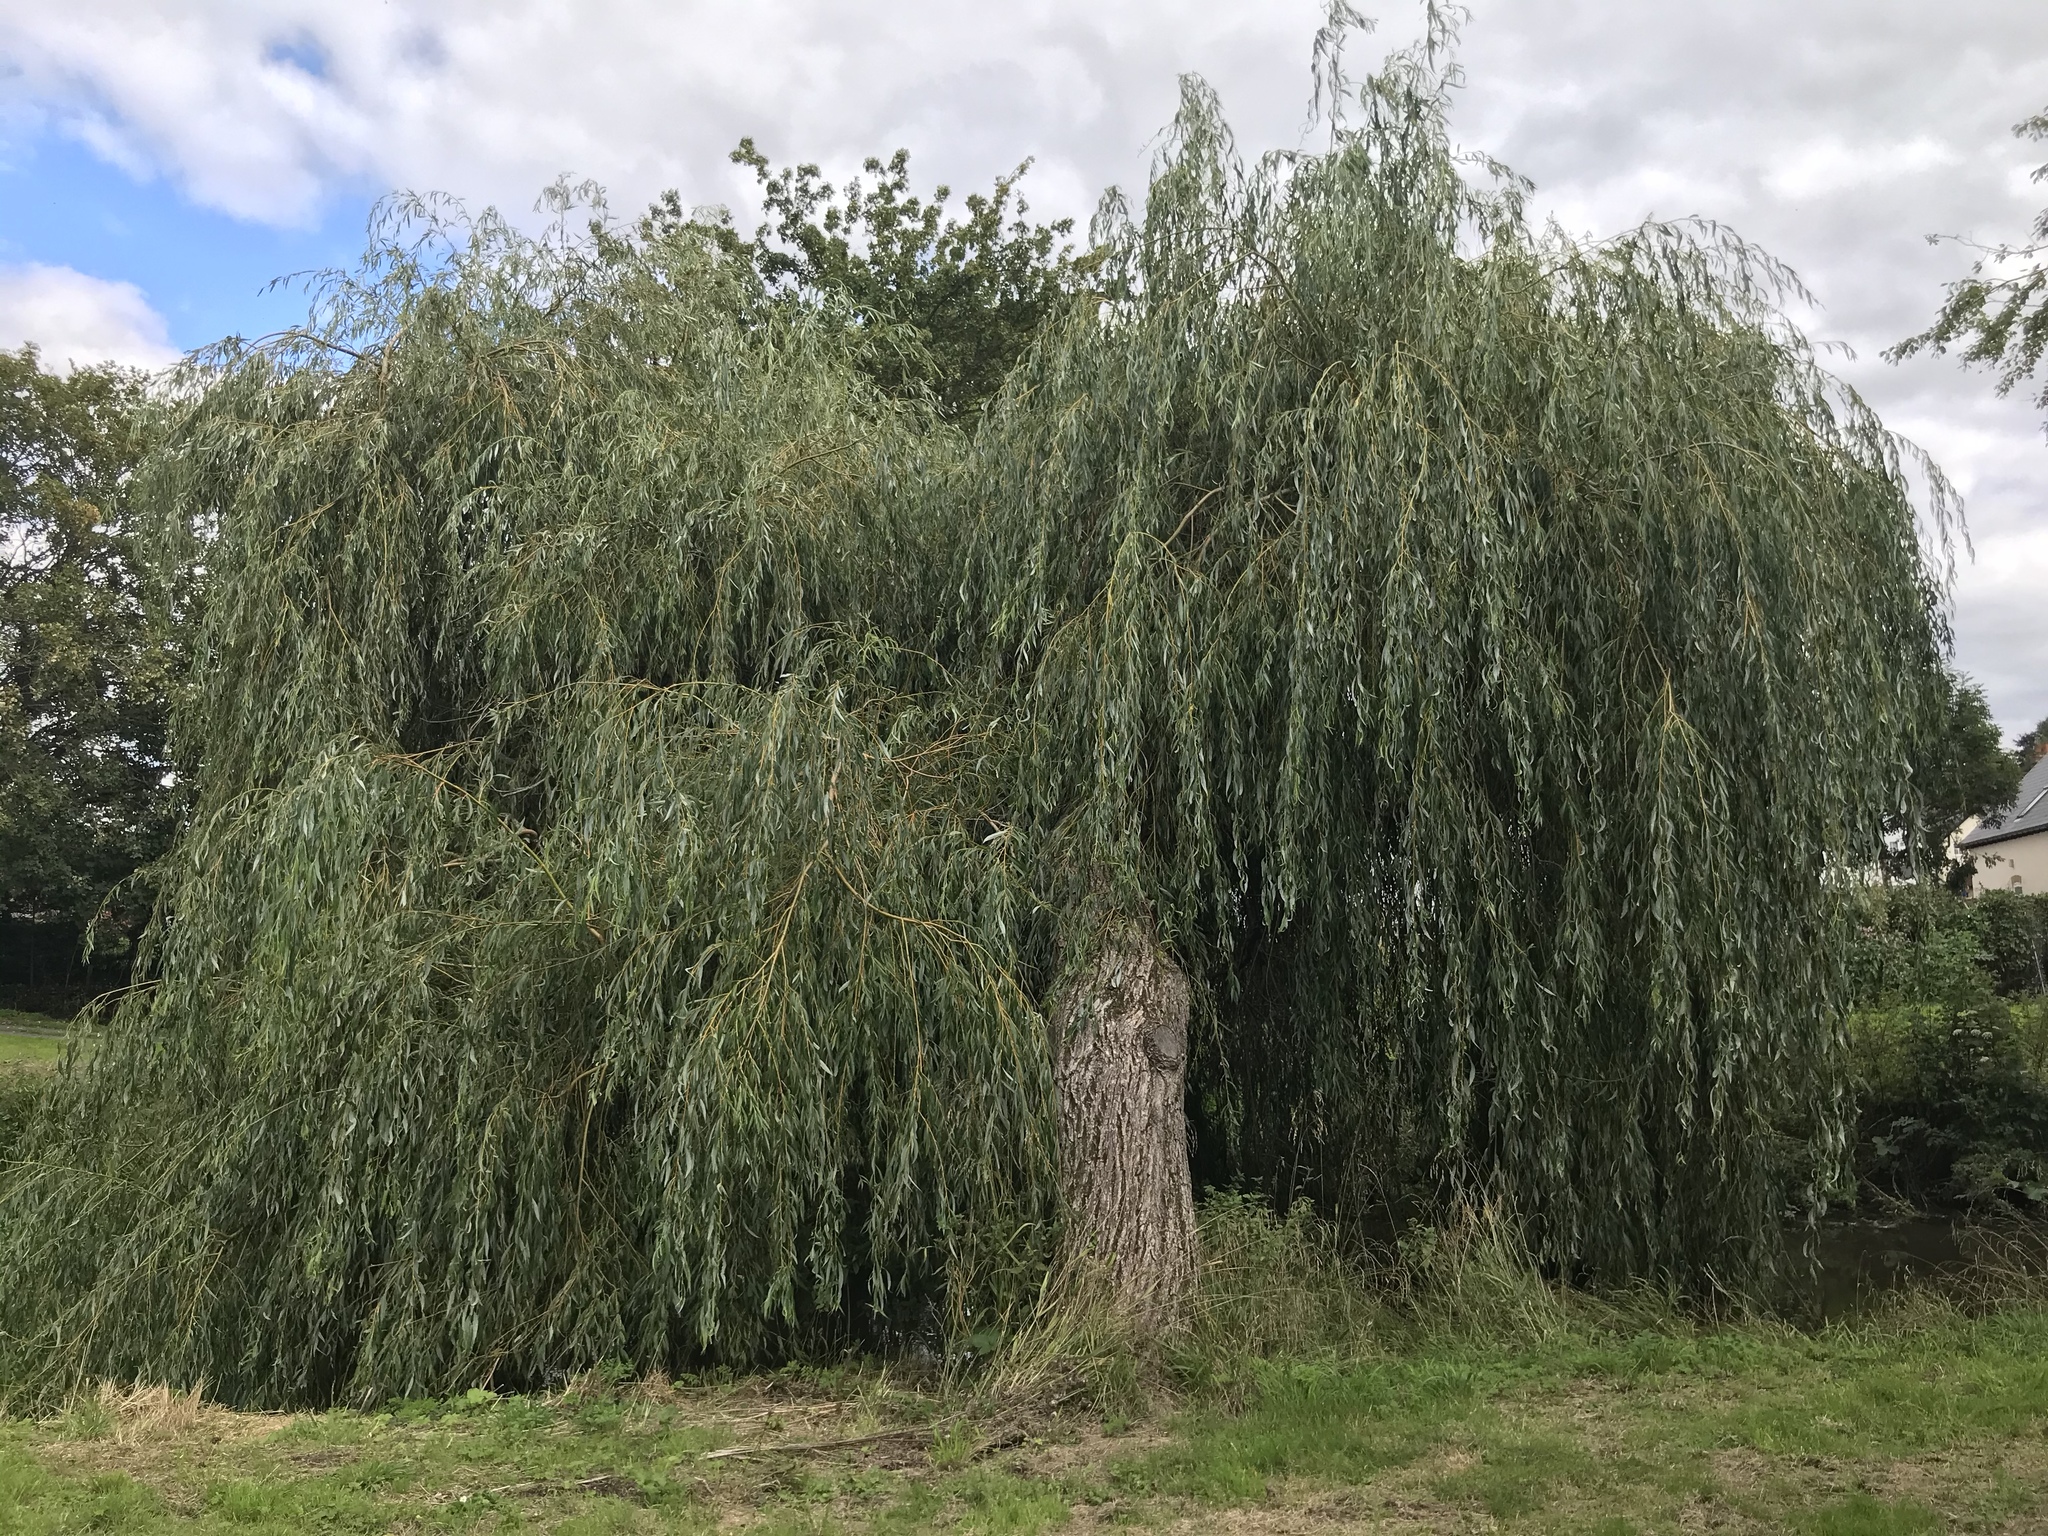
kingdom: Plantae
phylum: Tracheophyta
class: Magnoliopsida
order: Malpighiales
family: Salicaceae
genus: Salix
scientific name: Salix pendulina
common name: Wisconsin weeping willow
